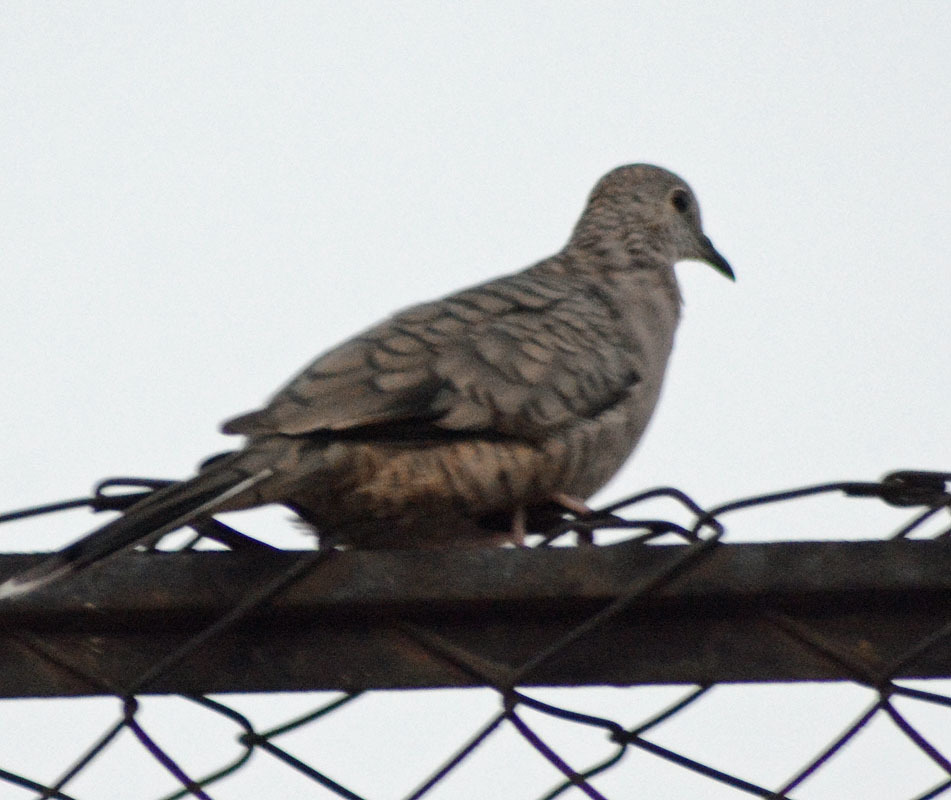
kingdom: Animalia
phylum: Chordata
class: Aves
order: Columbiformes
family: Columbidae
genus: Columbina
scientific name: Columbina inca
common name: Inca dove
